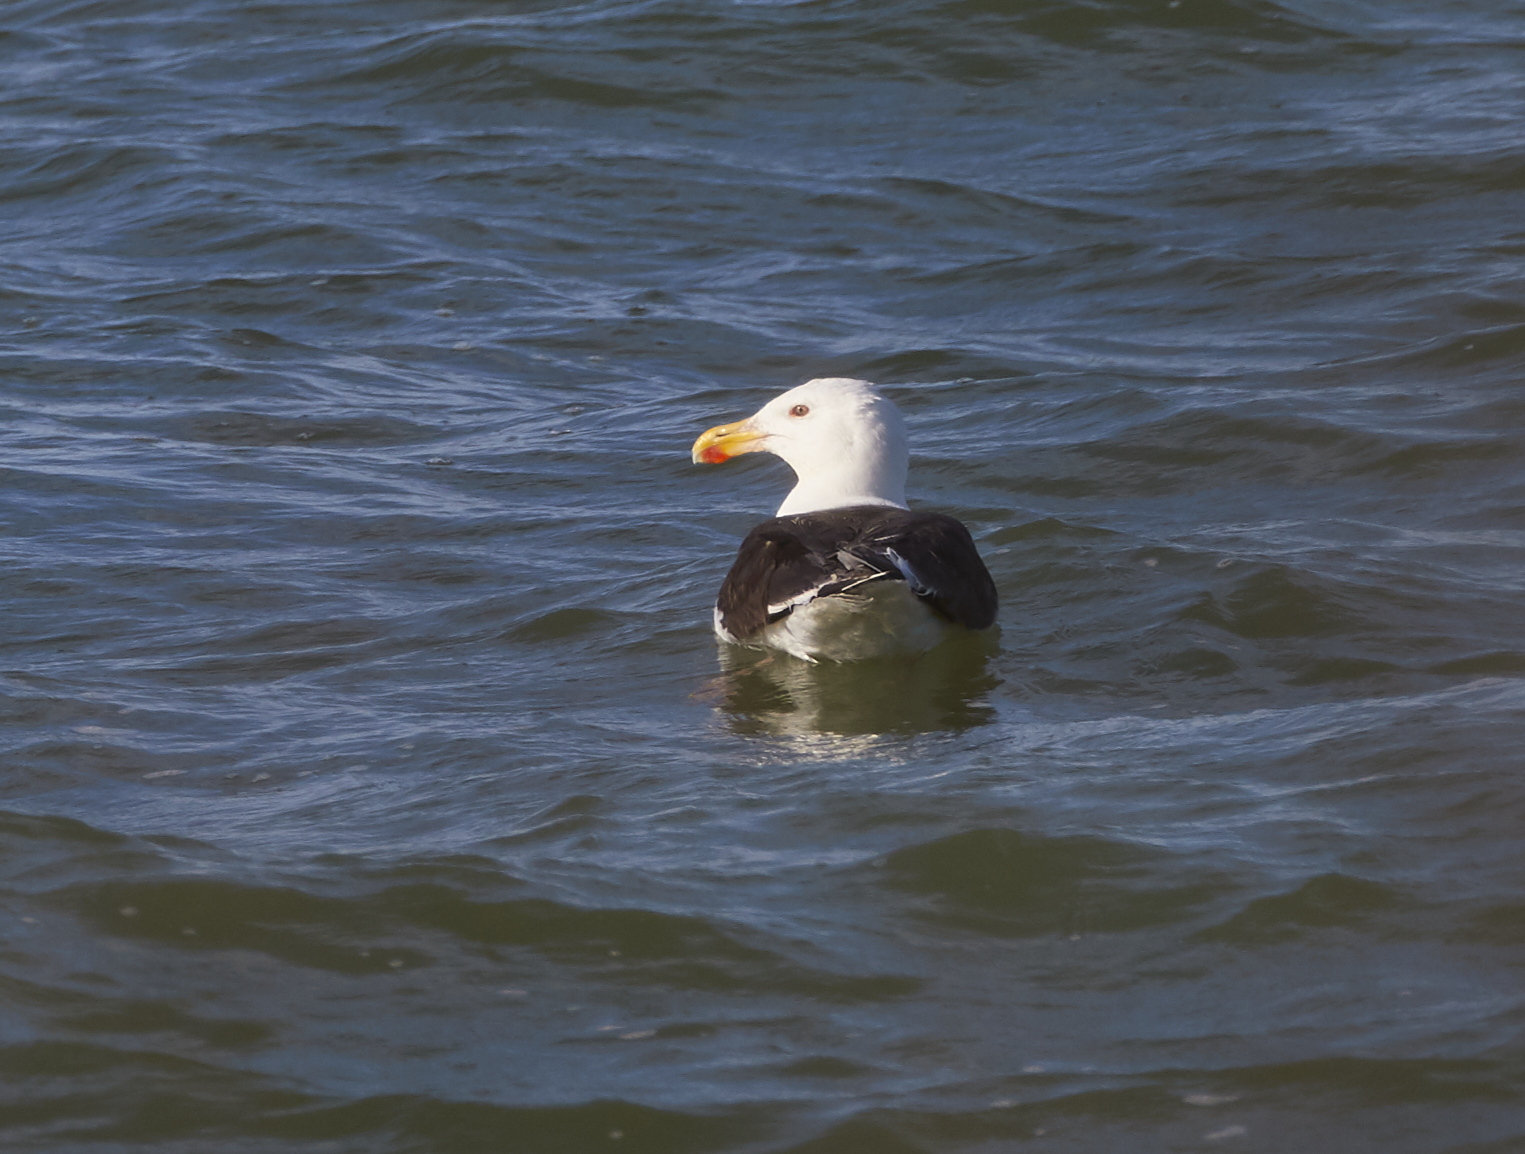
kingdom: Animalia
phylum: Chordata
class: Aves
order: Charadriiformes
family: Laridae
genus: Larus
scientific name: Larus marinus
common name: Great black-backed gull
